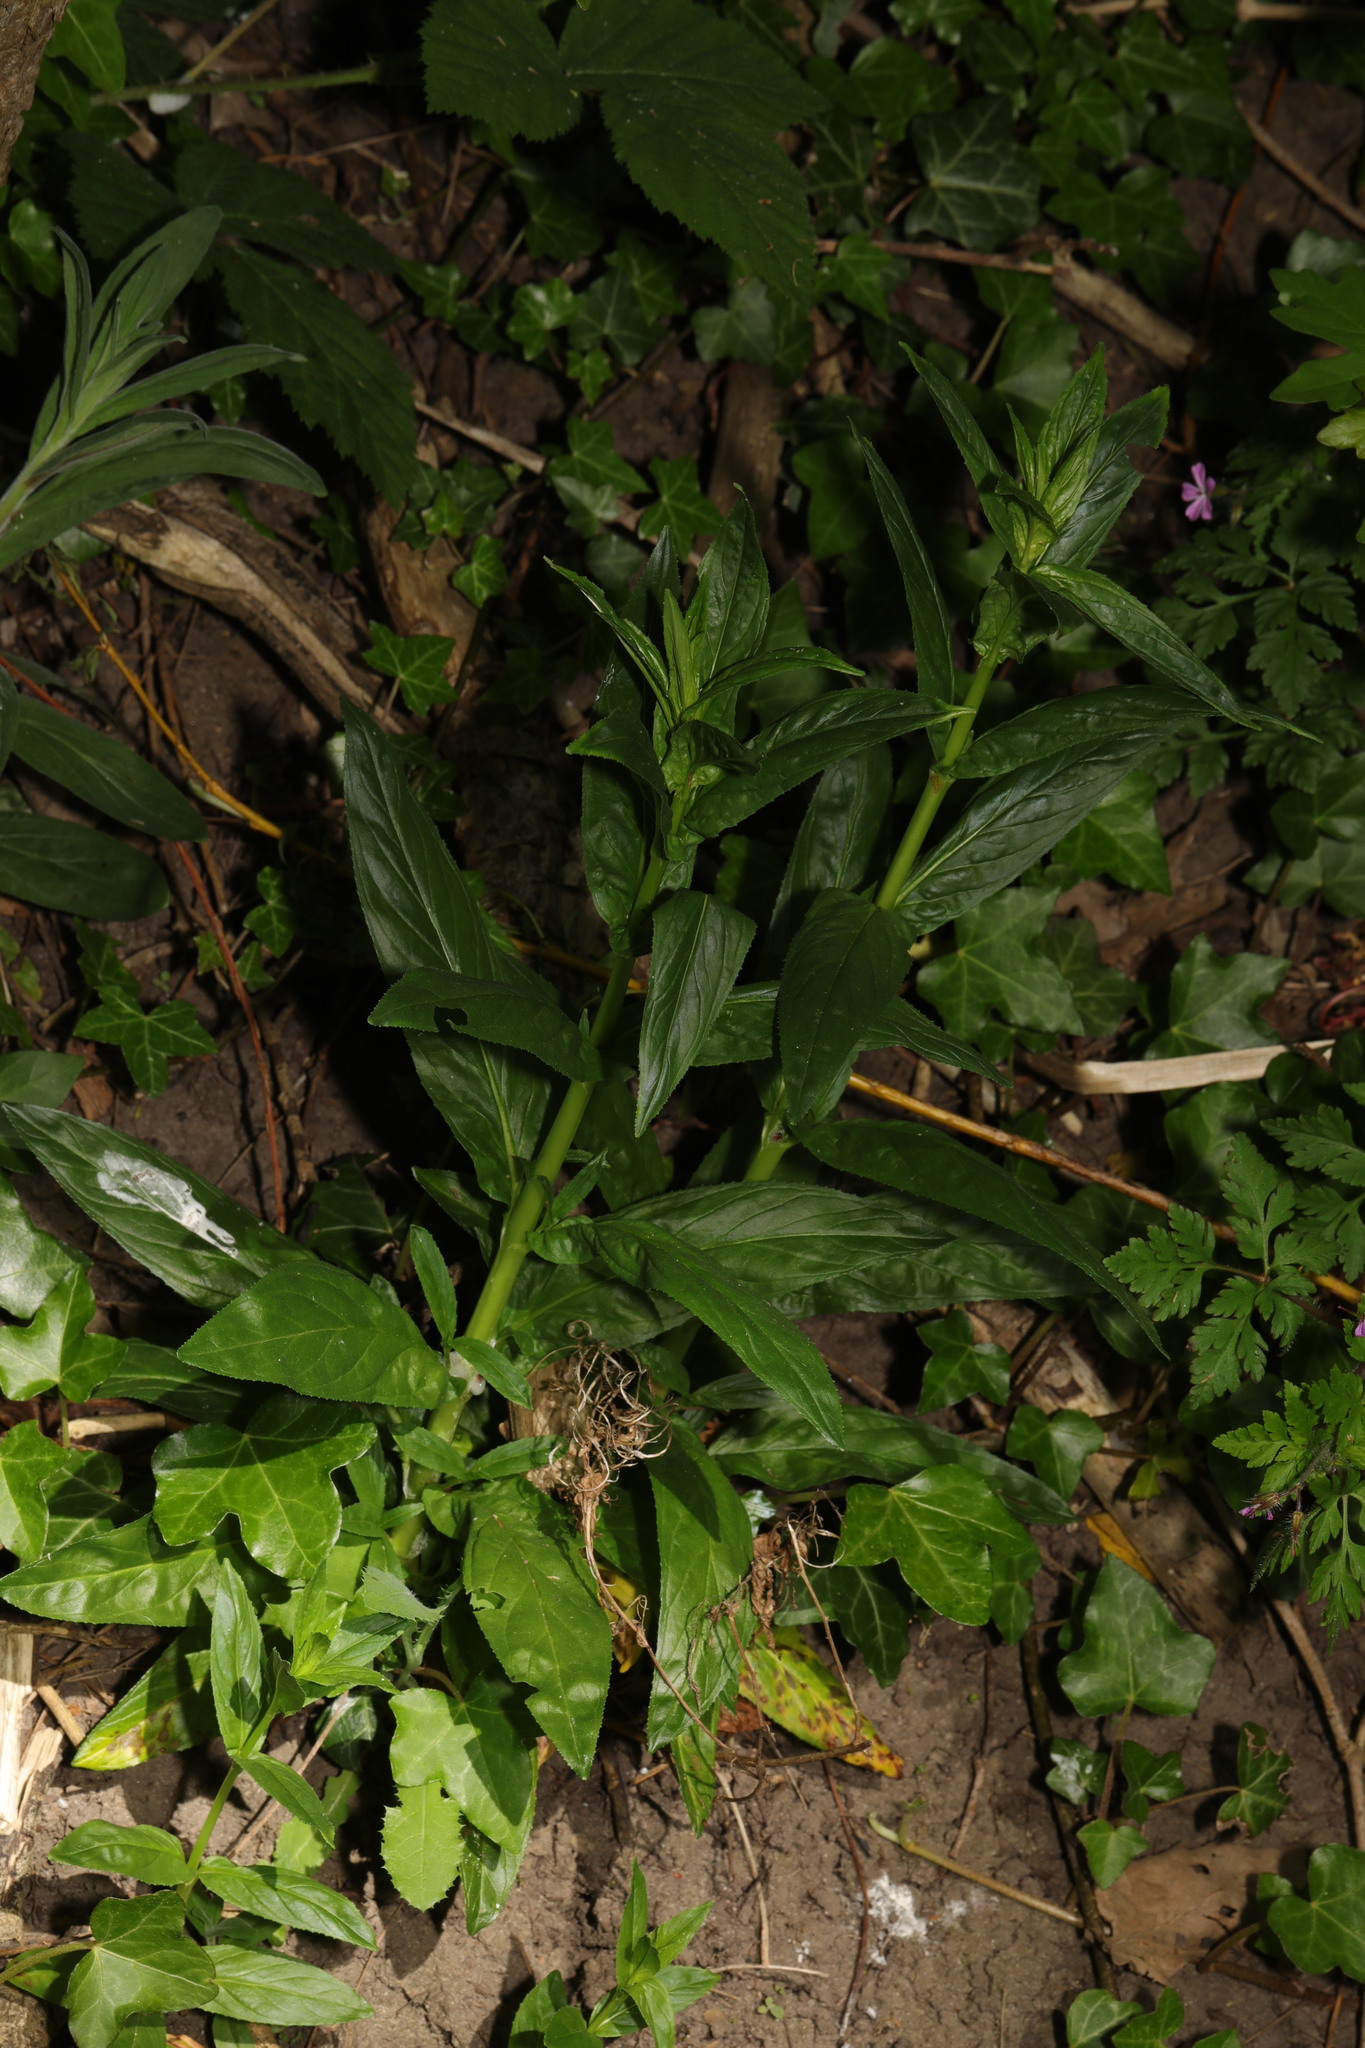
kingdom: Plantae
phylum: Tracheophyta
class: Magnoliopsida
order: Rosales
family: Rosaceae
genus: Geum
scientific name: Geum urbanum
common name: Wood avens
